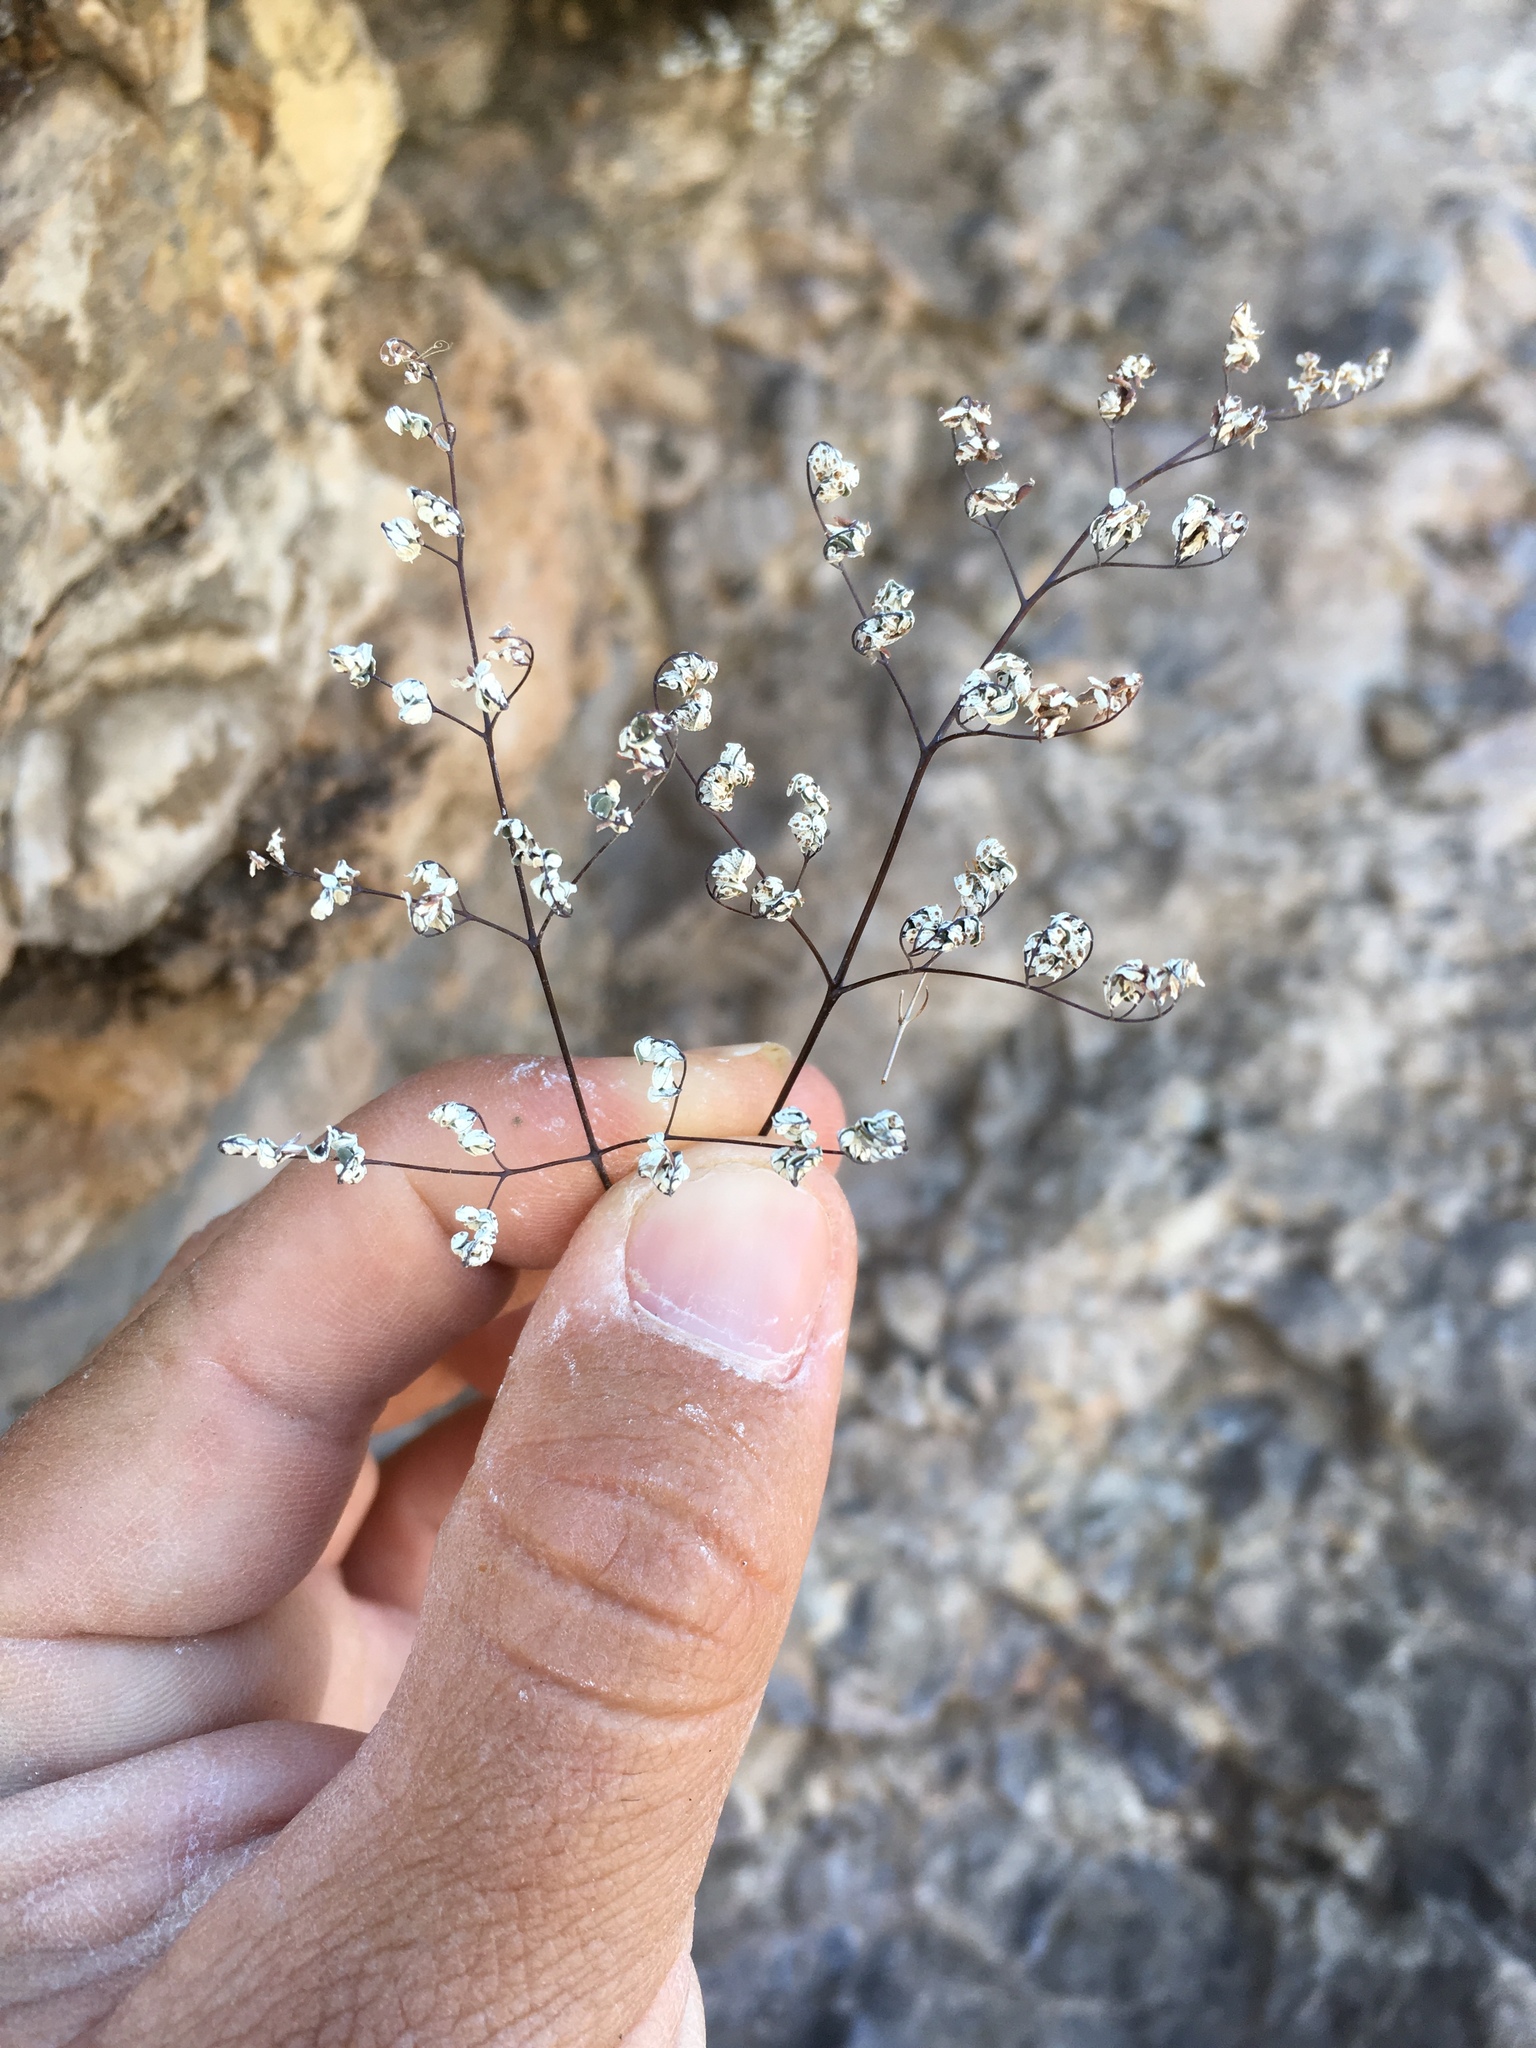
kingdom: Plantae
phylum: Tracheophyta
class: Polypodiopsida
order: Polypodiales
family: Pteridaceae
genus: Argyrochosma
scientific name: Argyrochosma limitanea
